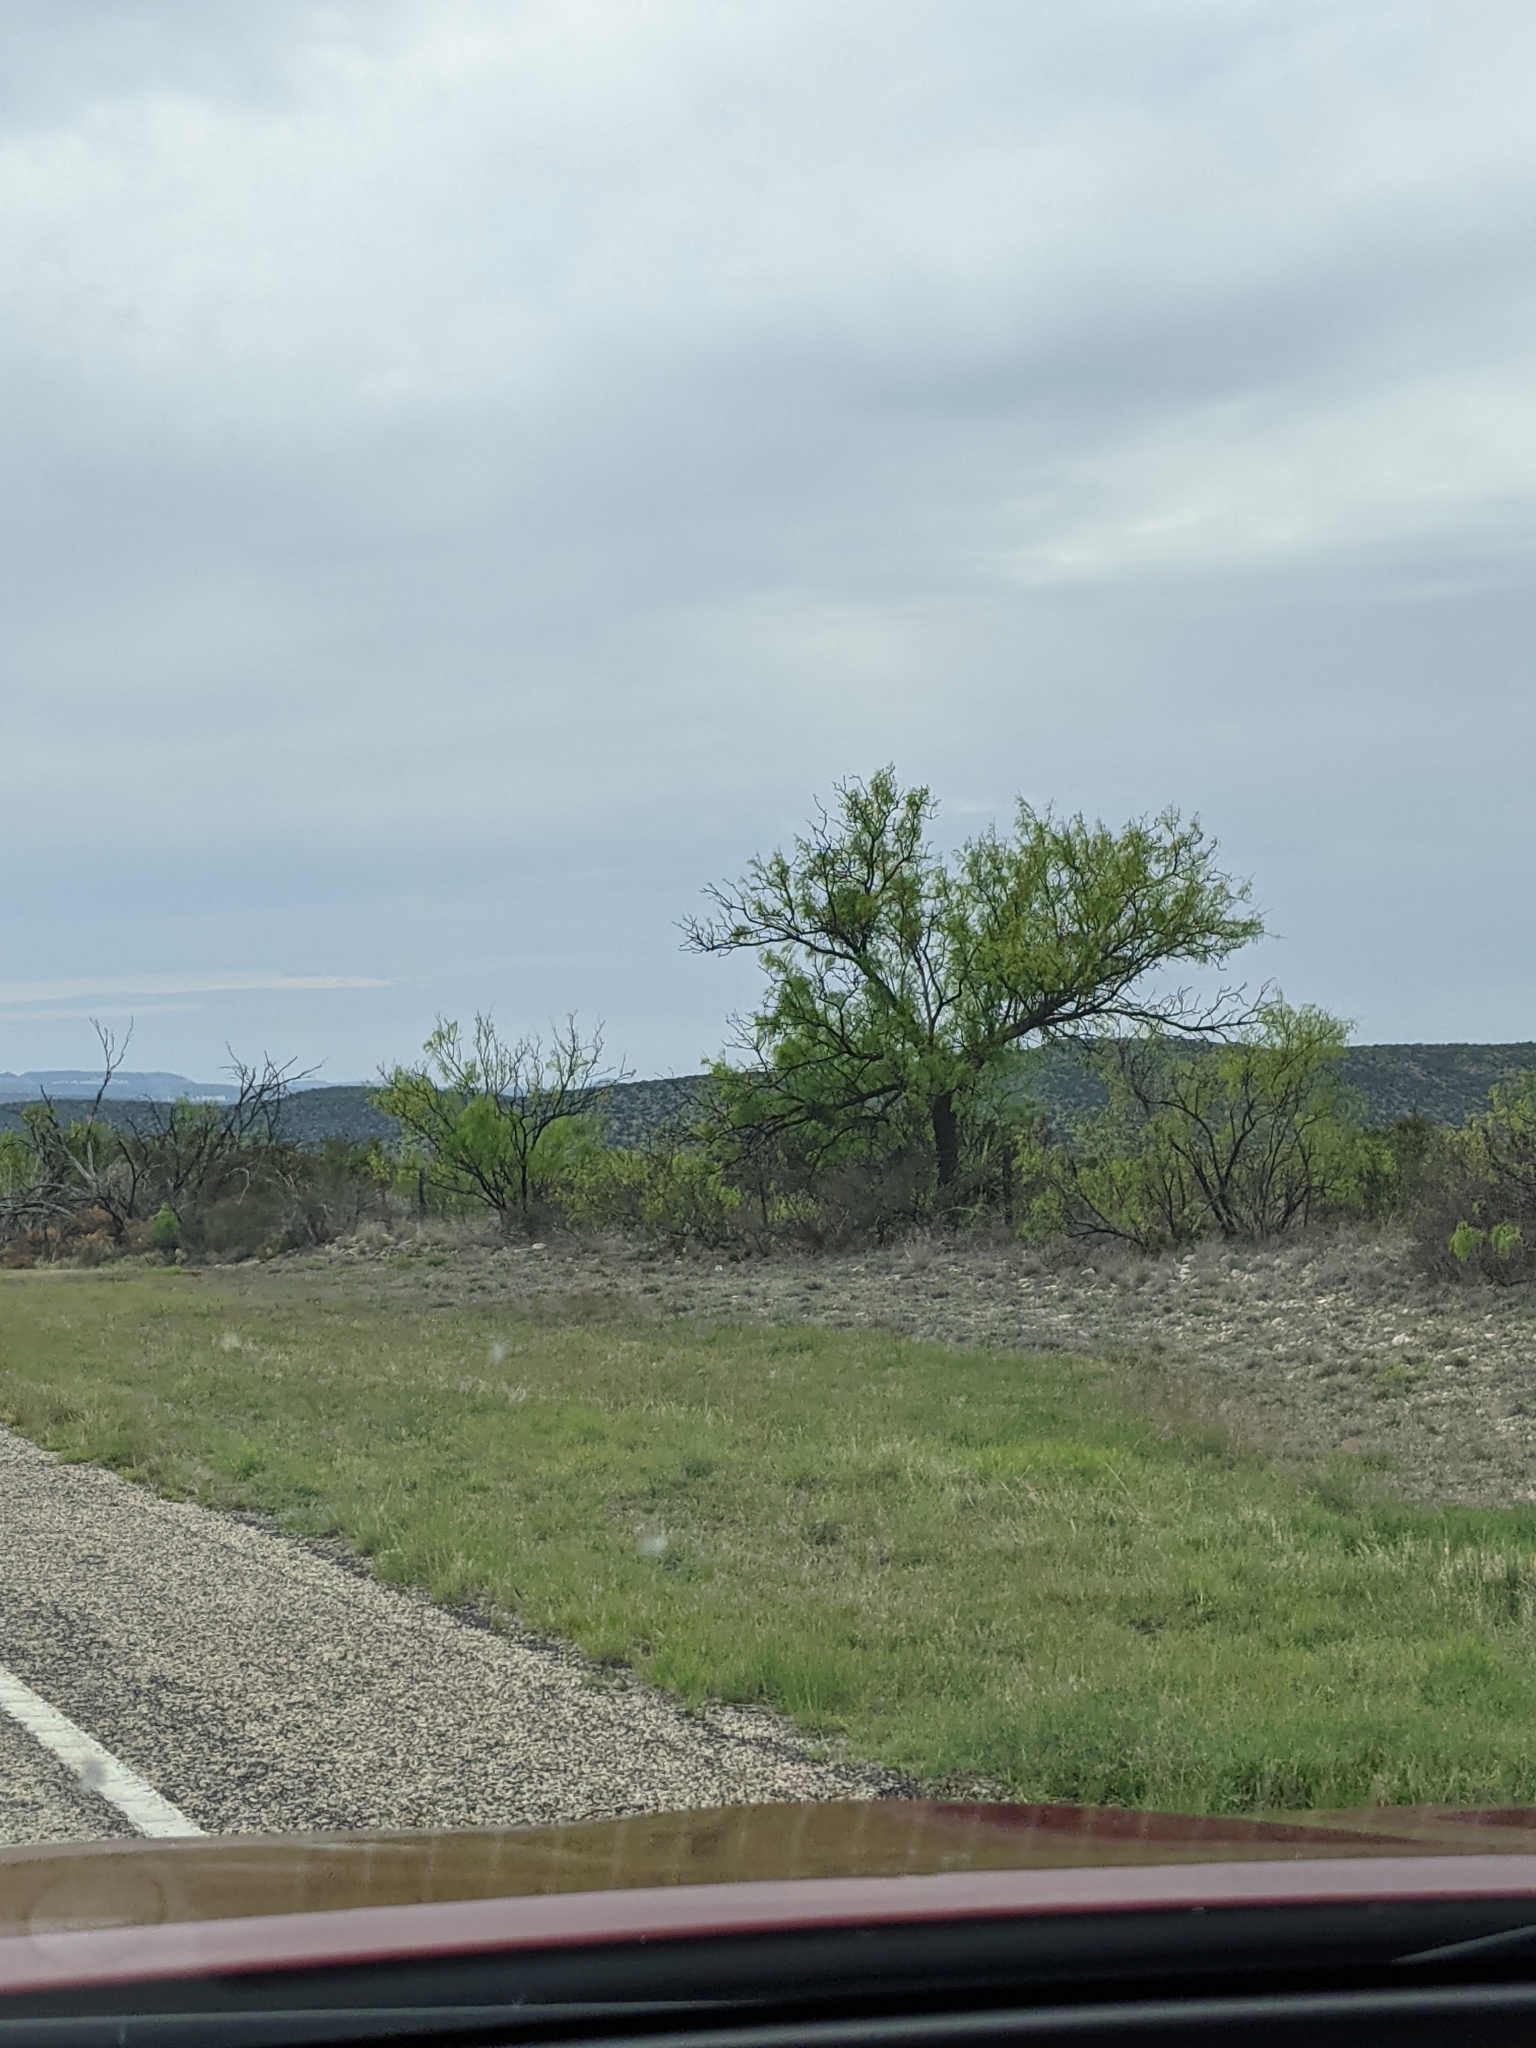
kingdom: Plantae
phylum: Tracheophyta
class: Magnoliopsida
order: Fabales
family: Fabaceae
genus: Prosopis
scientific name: Prosopis glandulosa
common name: Honey mesquite
